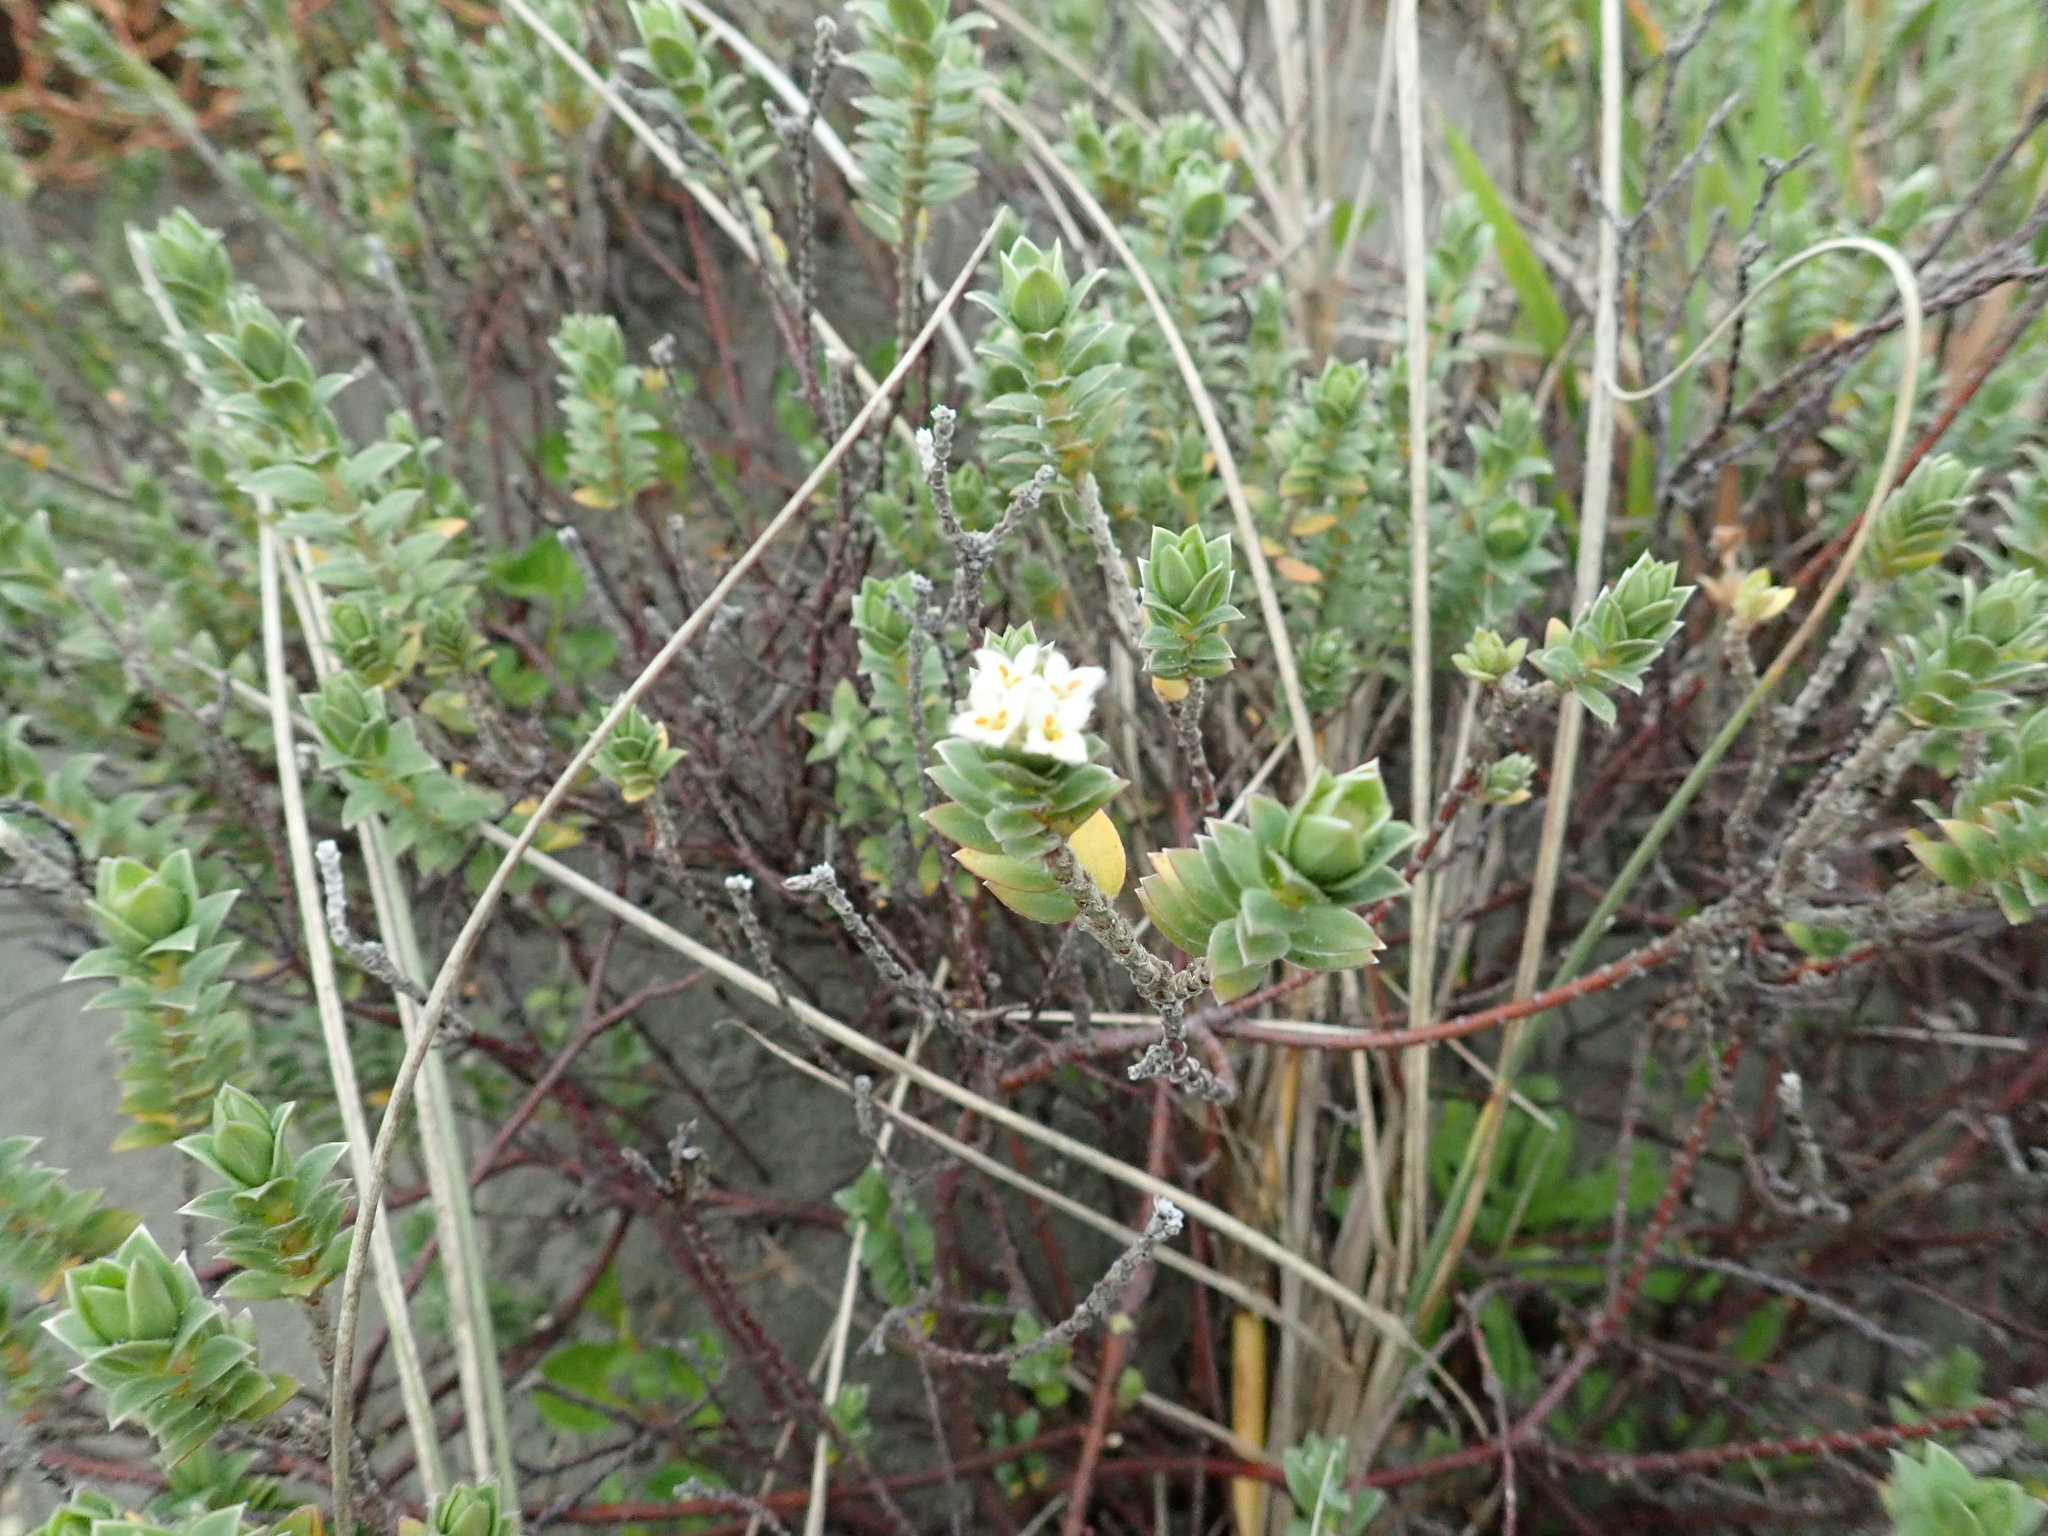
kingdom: Plantae
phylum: Tracheophyta
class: Magnoliopsida
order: Malvales
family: Thymelaeaceae
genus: Pimelea
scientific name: Pimelea villosa
